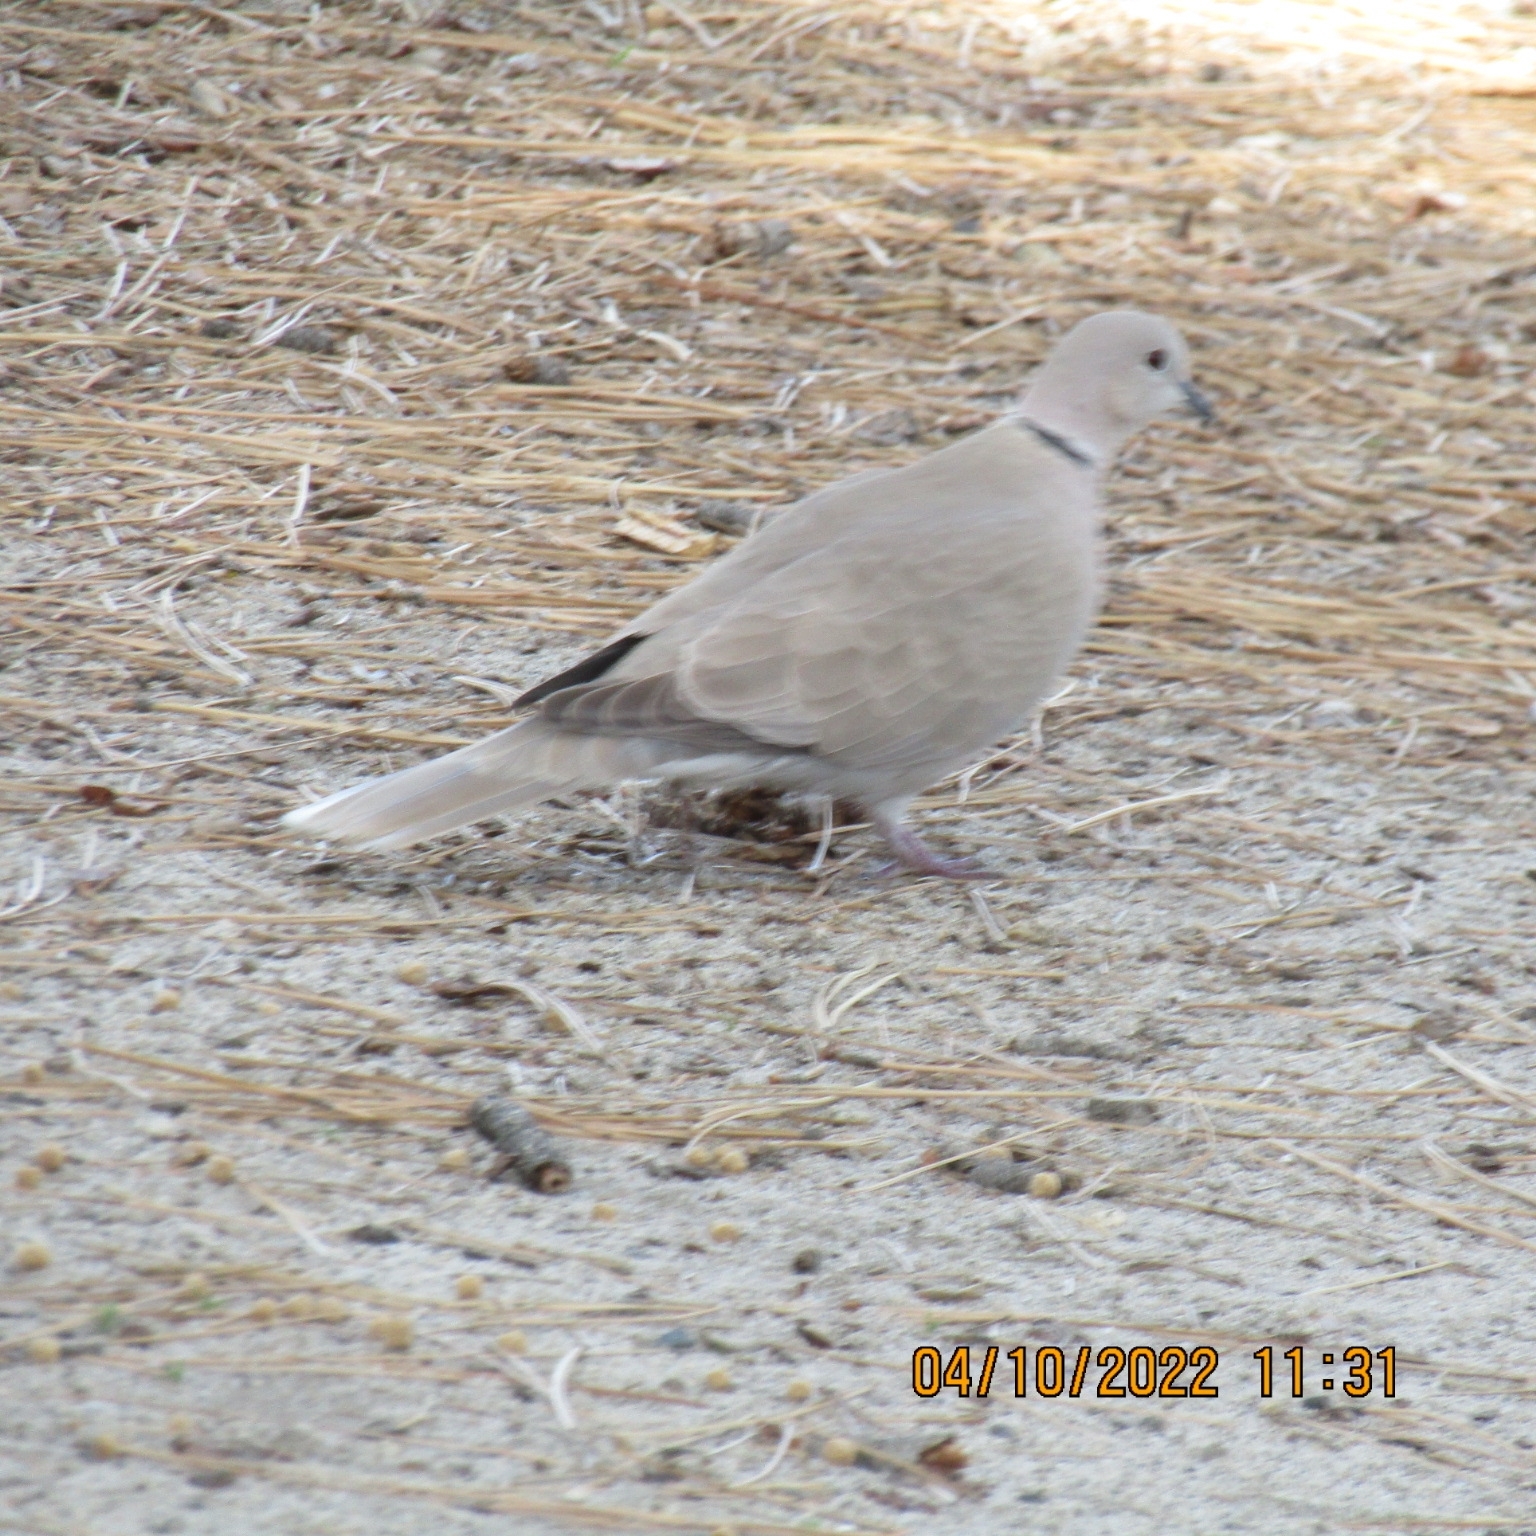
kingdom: Animalia
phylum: Chordata
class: Aves
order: Columbiformes
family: Columbidae
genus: Streptopelia
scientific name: Streptopelia decaocto
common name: Eurasian collared dove
